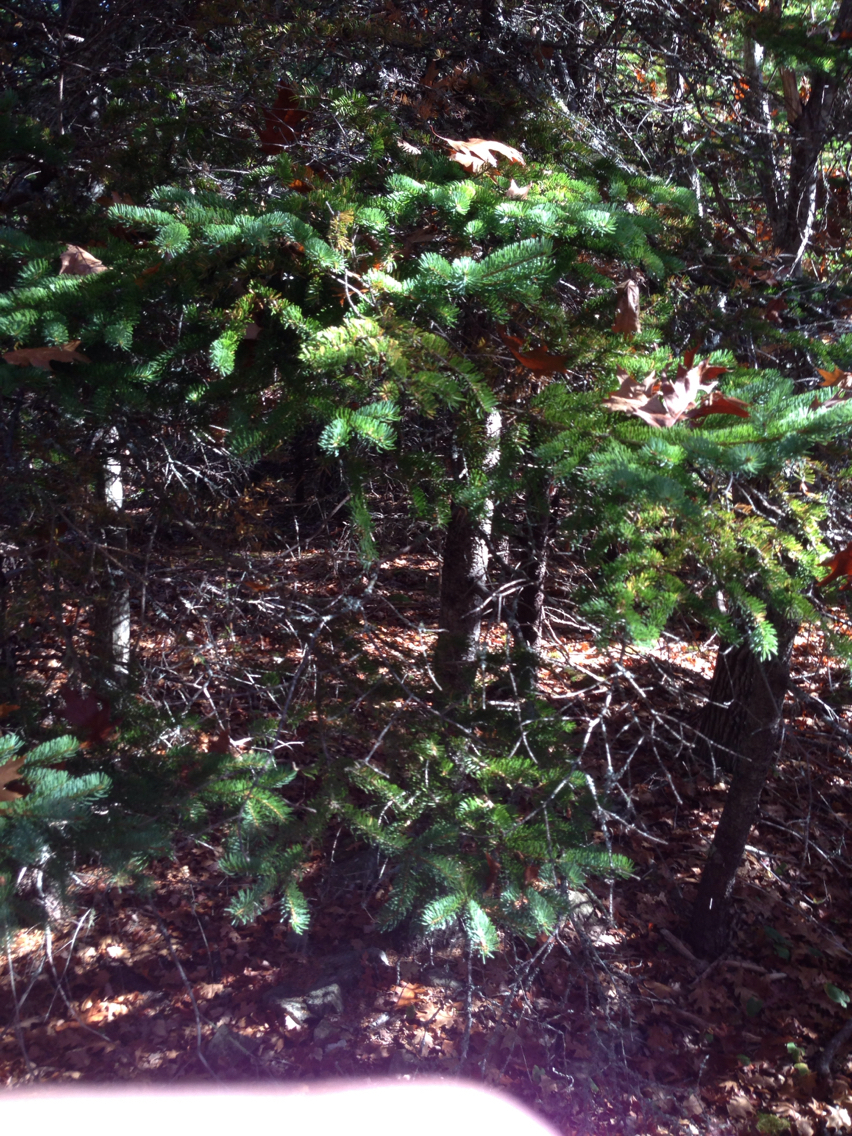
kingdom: Plantae
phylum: Tracheophyta
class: Pinopsida
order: Pinales
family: Pinaceae
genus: Picea
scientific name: Picea glauca
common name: White spruce
